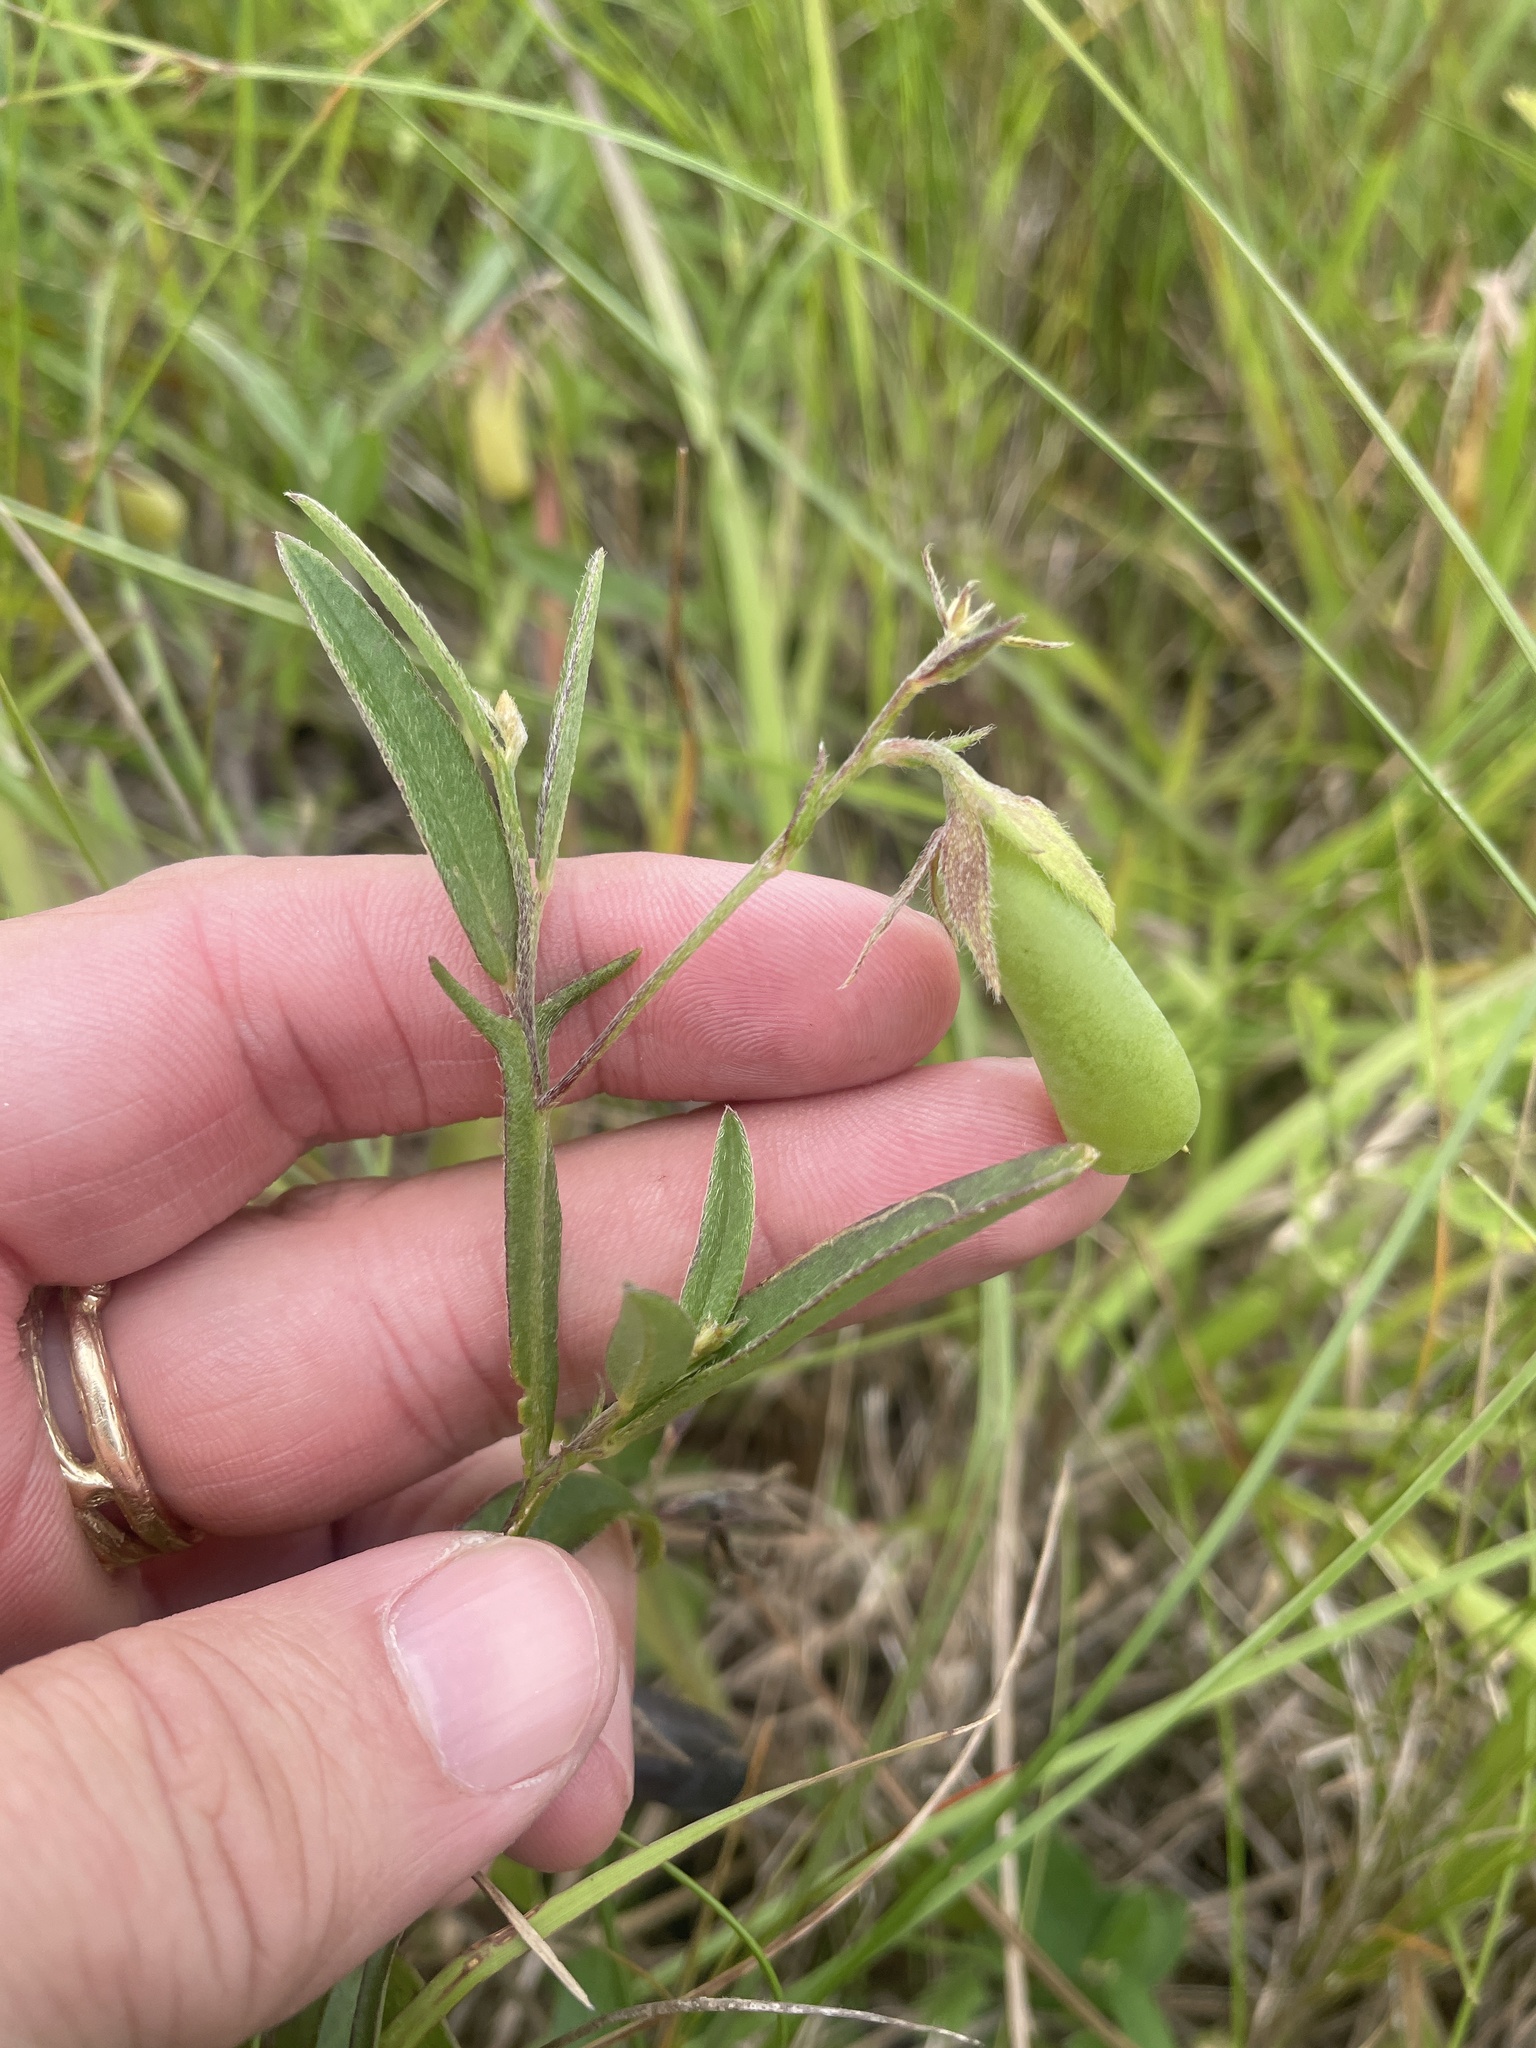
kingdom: Plantae
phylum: Tracheophyta
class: Magnoliopsida
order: Fabales
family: Fabaceae
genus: Crotalaria
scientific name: Crotalaria sagittalis
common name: Arrowhead rattlebox
